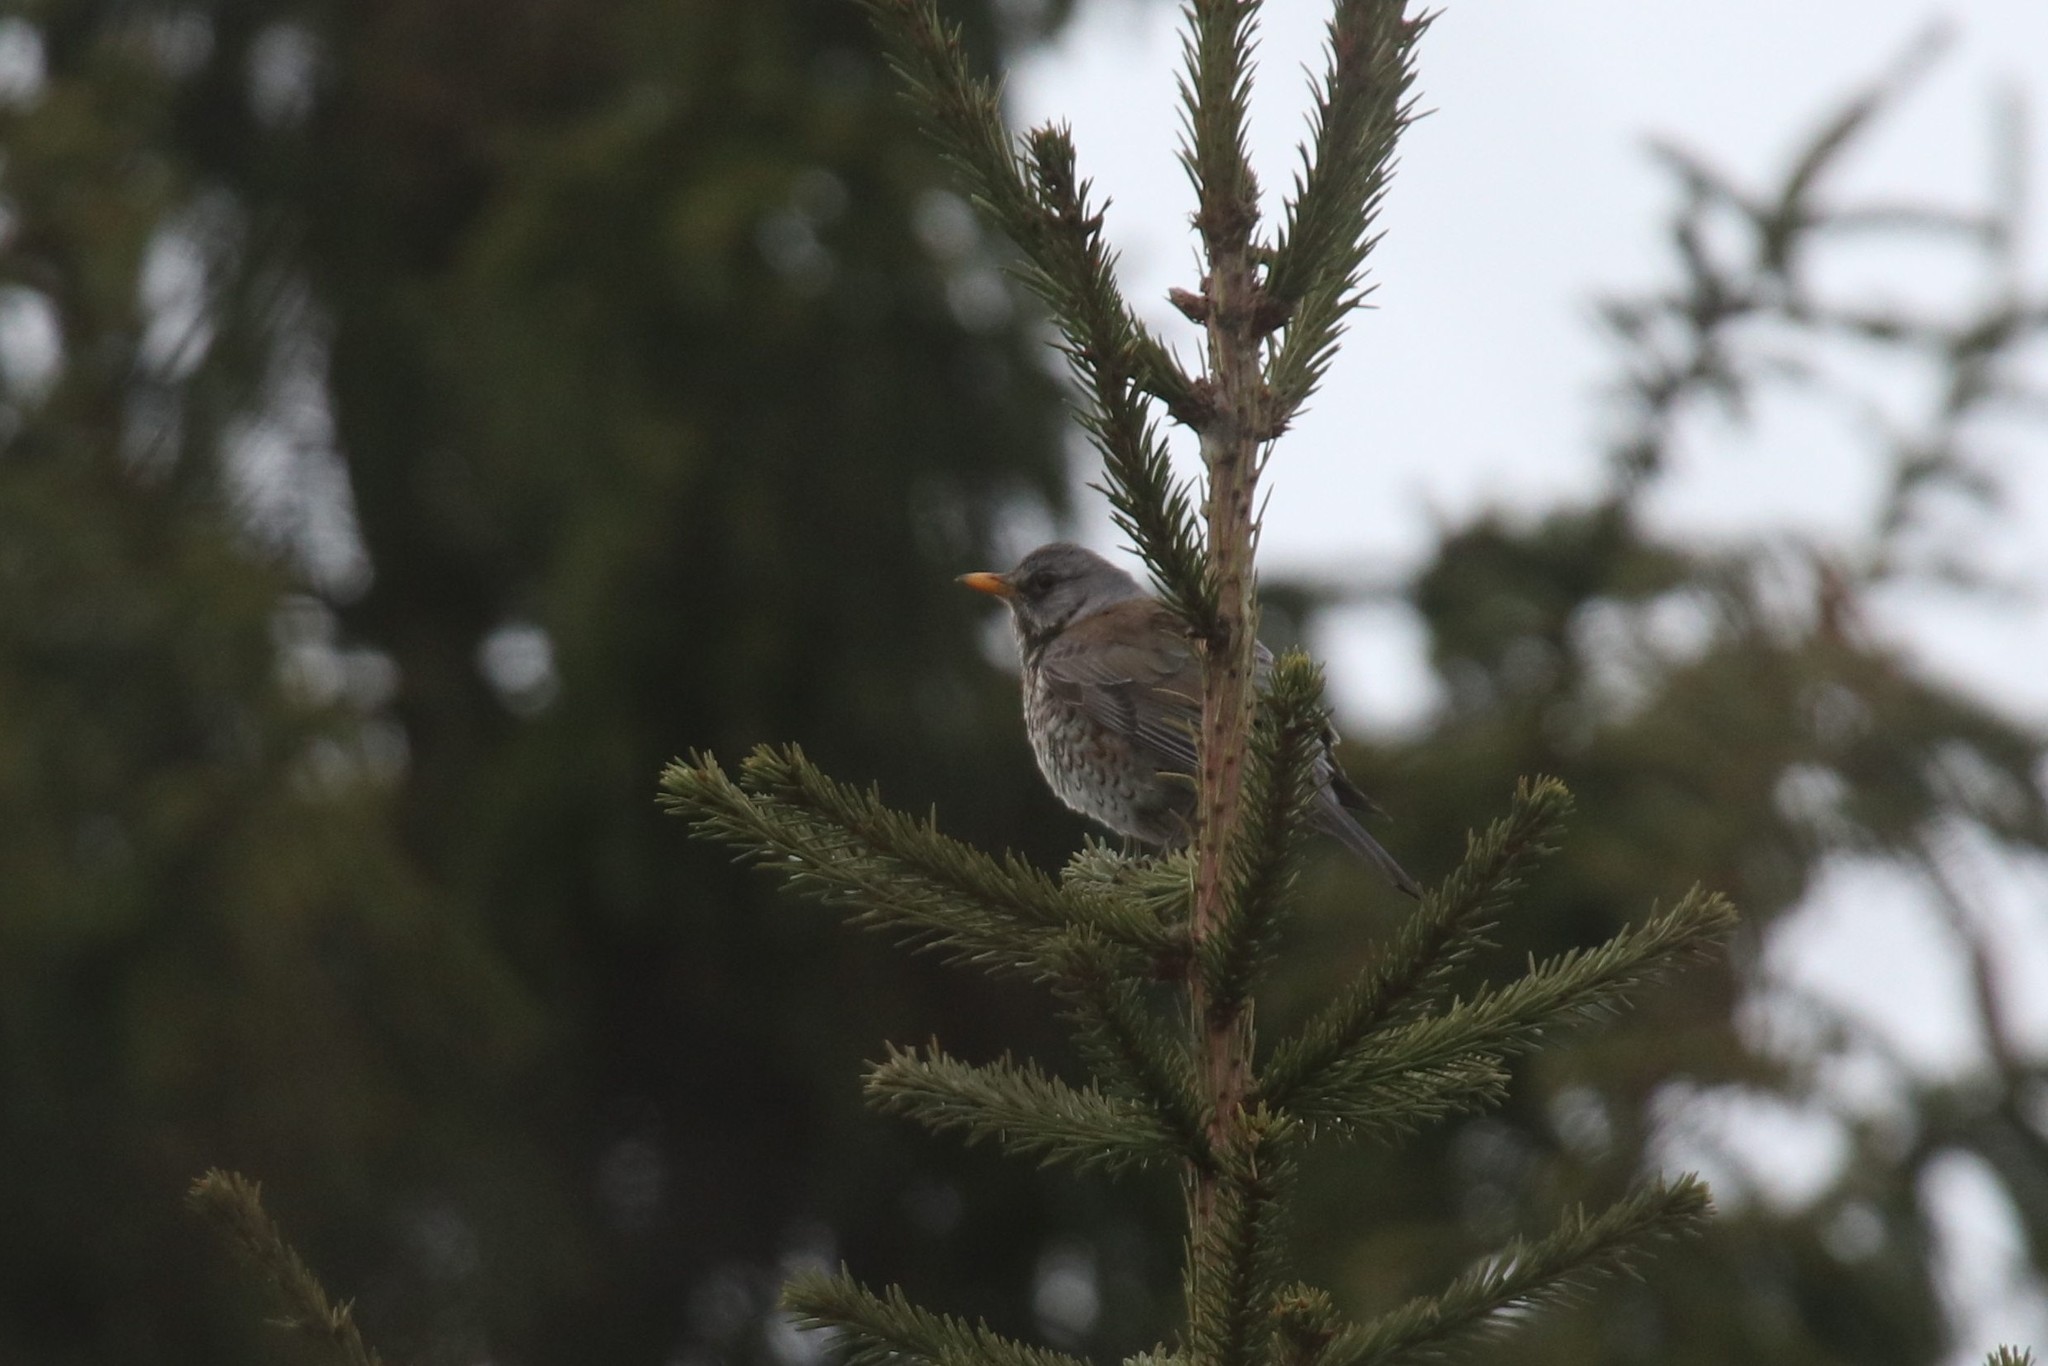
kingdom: Animalia
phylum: Chordata
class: Aves
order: Passeriformes
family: Turdidae
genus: Turdus
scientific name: Turdus pilaris
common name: Fieldfare
